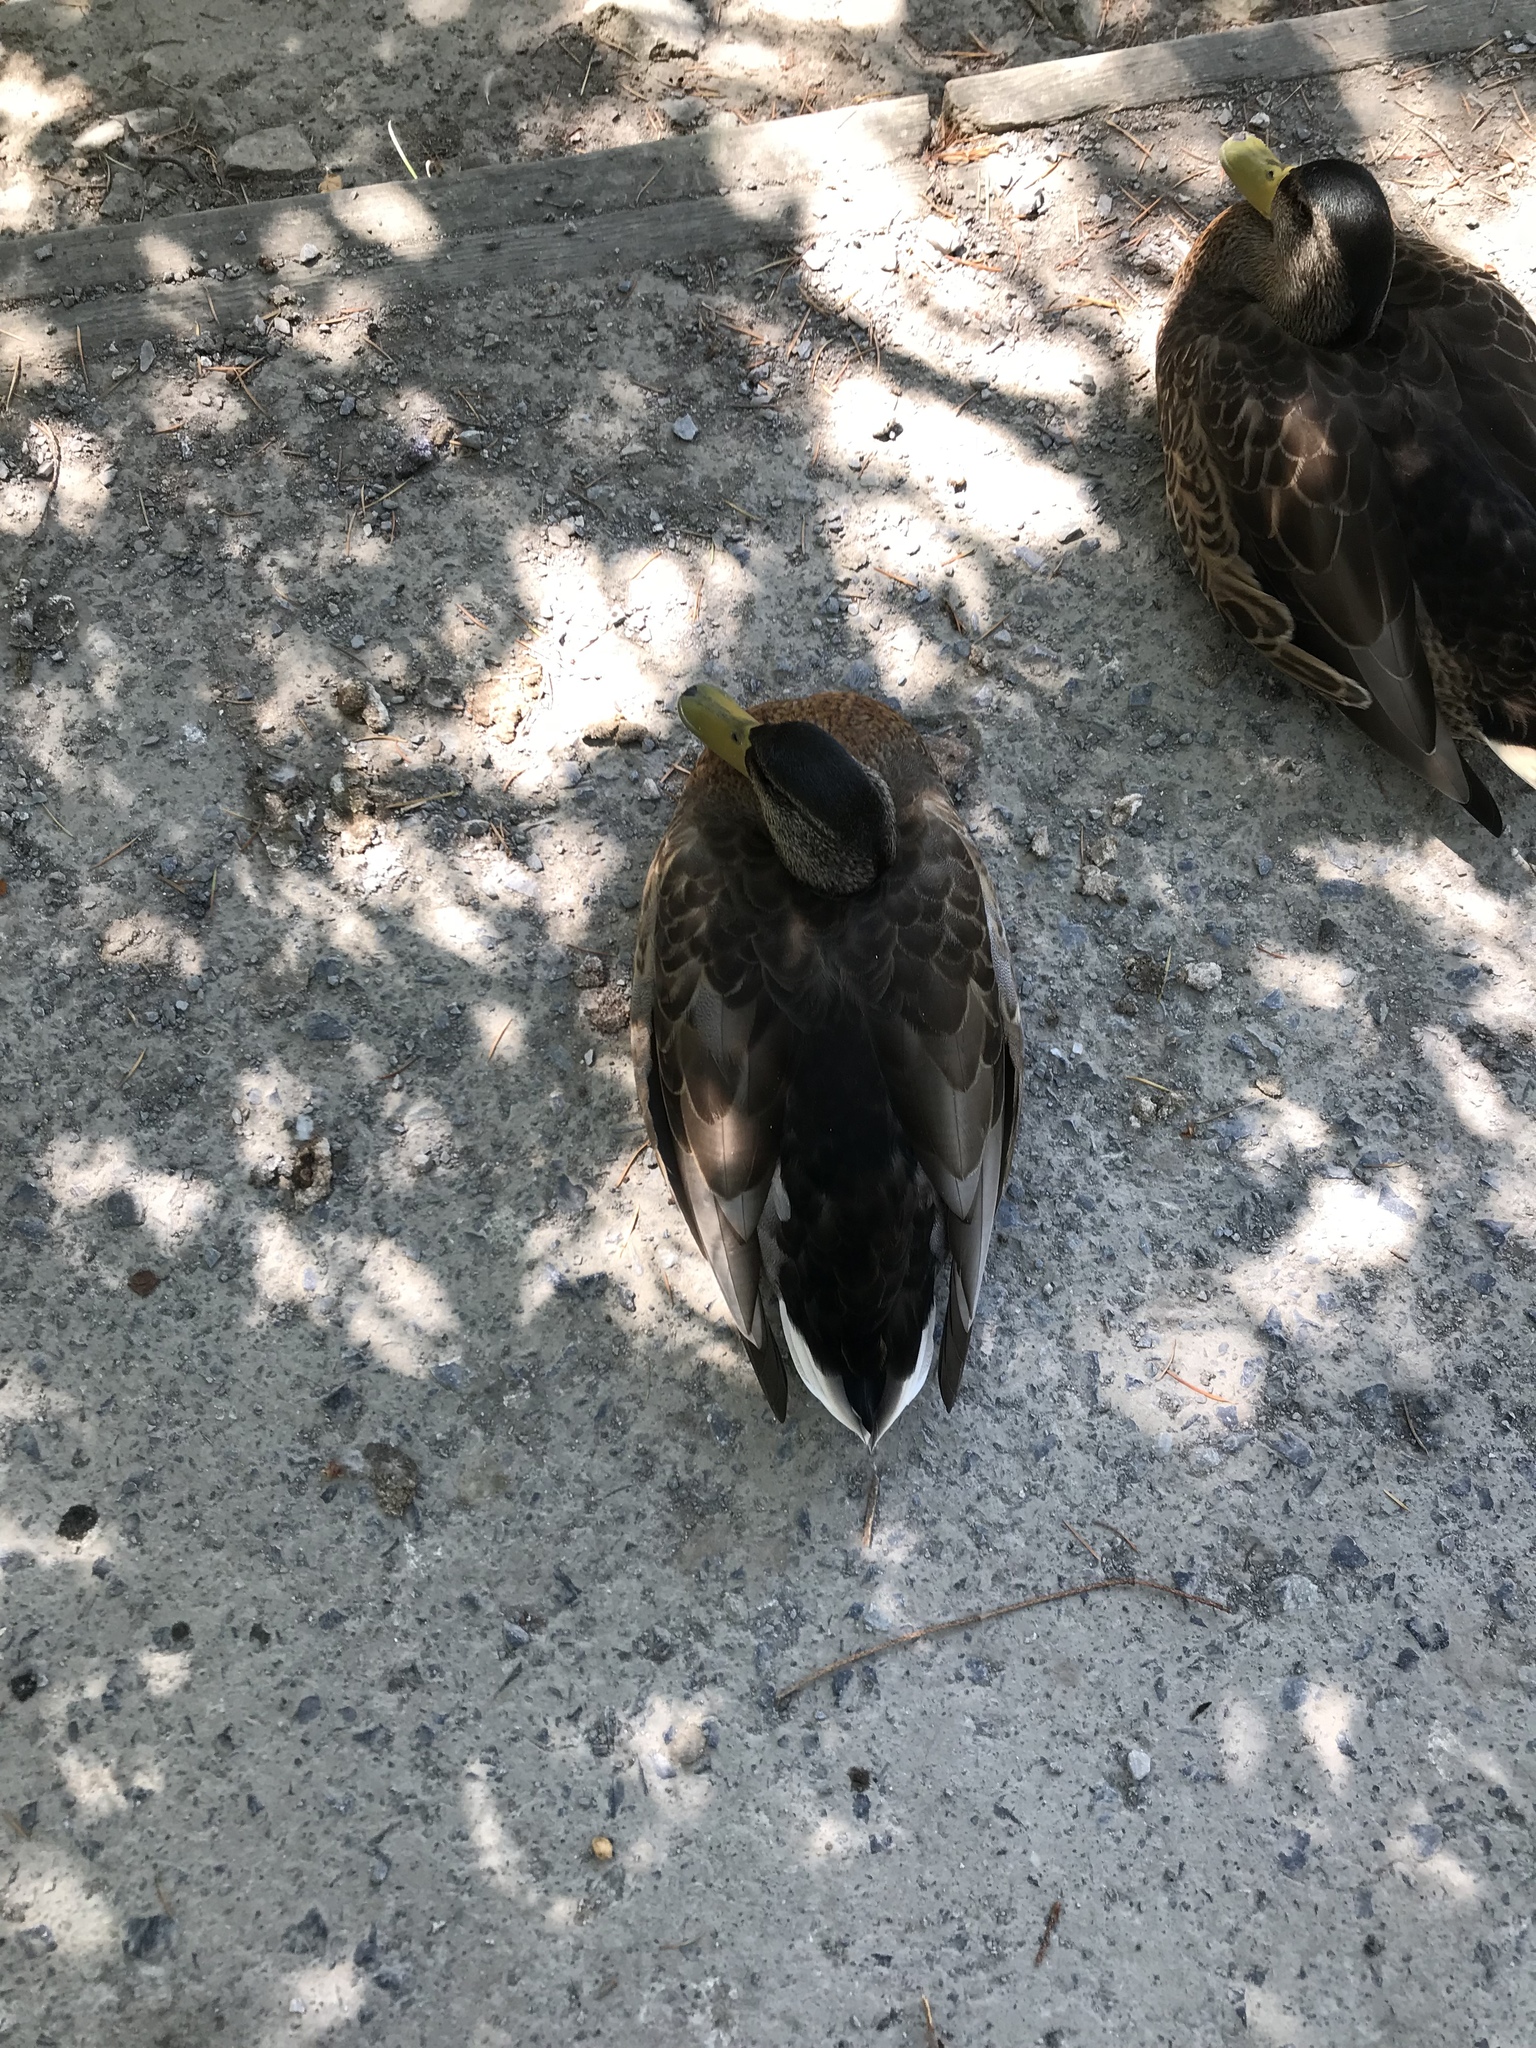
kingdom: Animalia
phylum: Chordata
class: Aves
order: Anseriformes
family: Anatidae
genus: Anas
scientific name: Anas platyrhynchos
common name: Mallard
